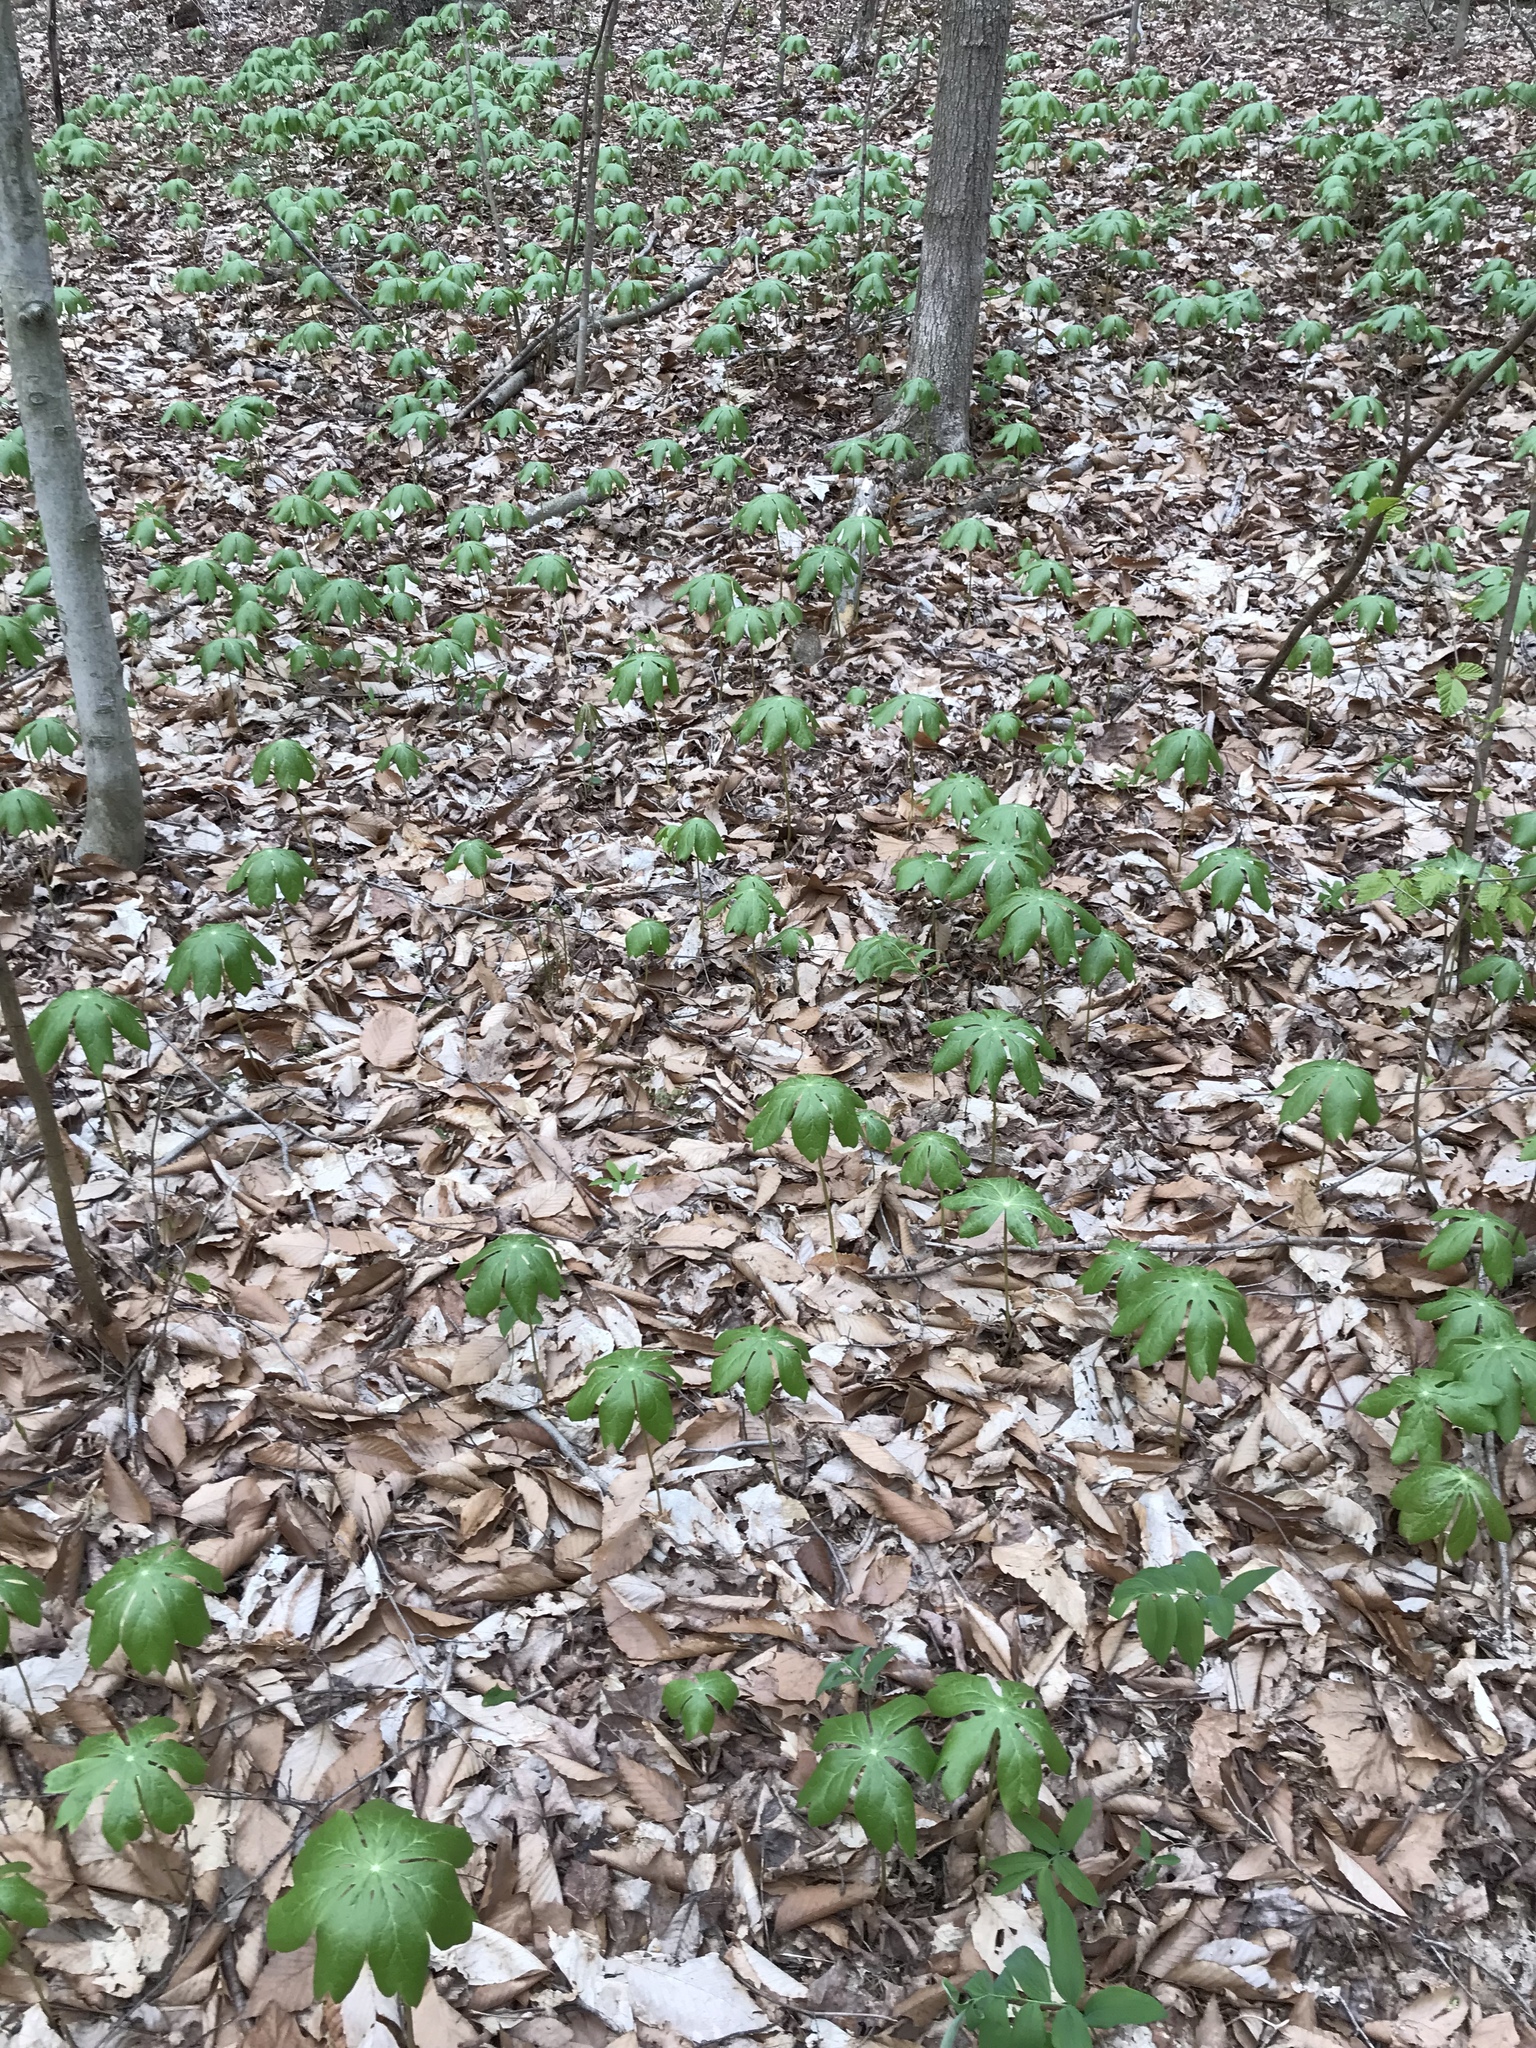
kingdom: Plantae
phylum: Tracheophyta
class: Magnoliopsida
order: Ranunculales
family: Berberidaceae
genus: Podophyllum
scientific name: Podophyllum peltatum
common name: Wild mandrake
